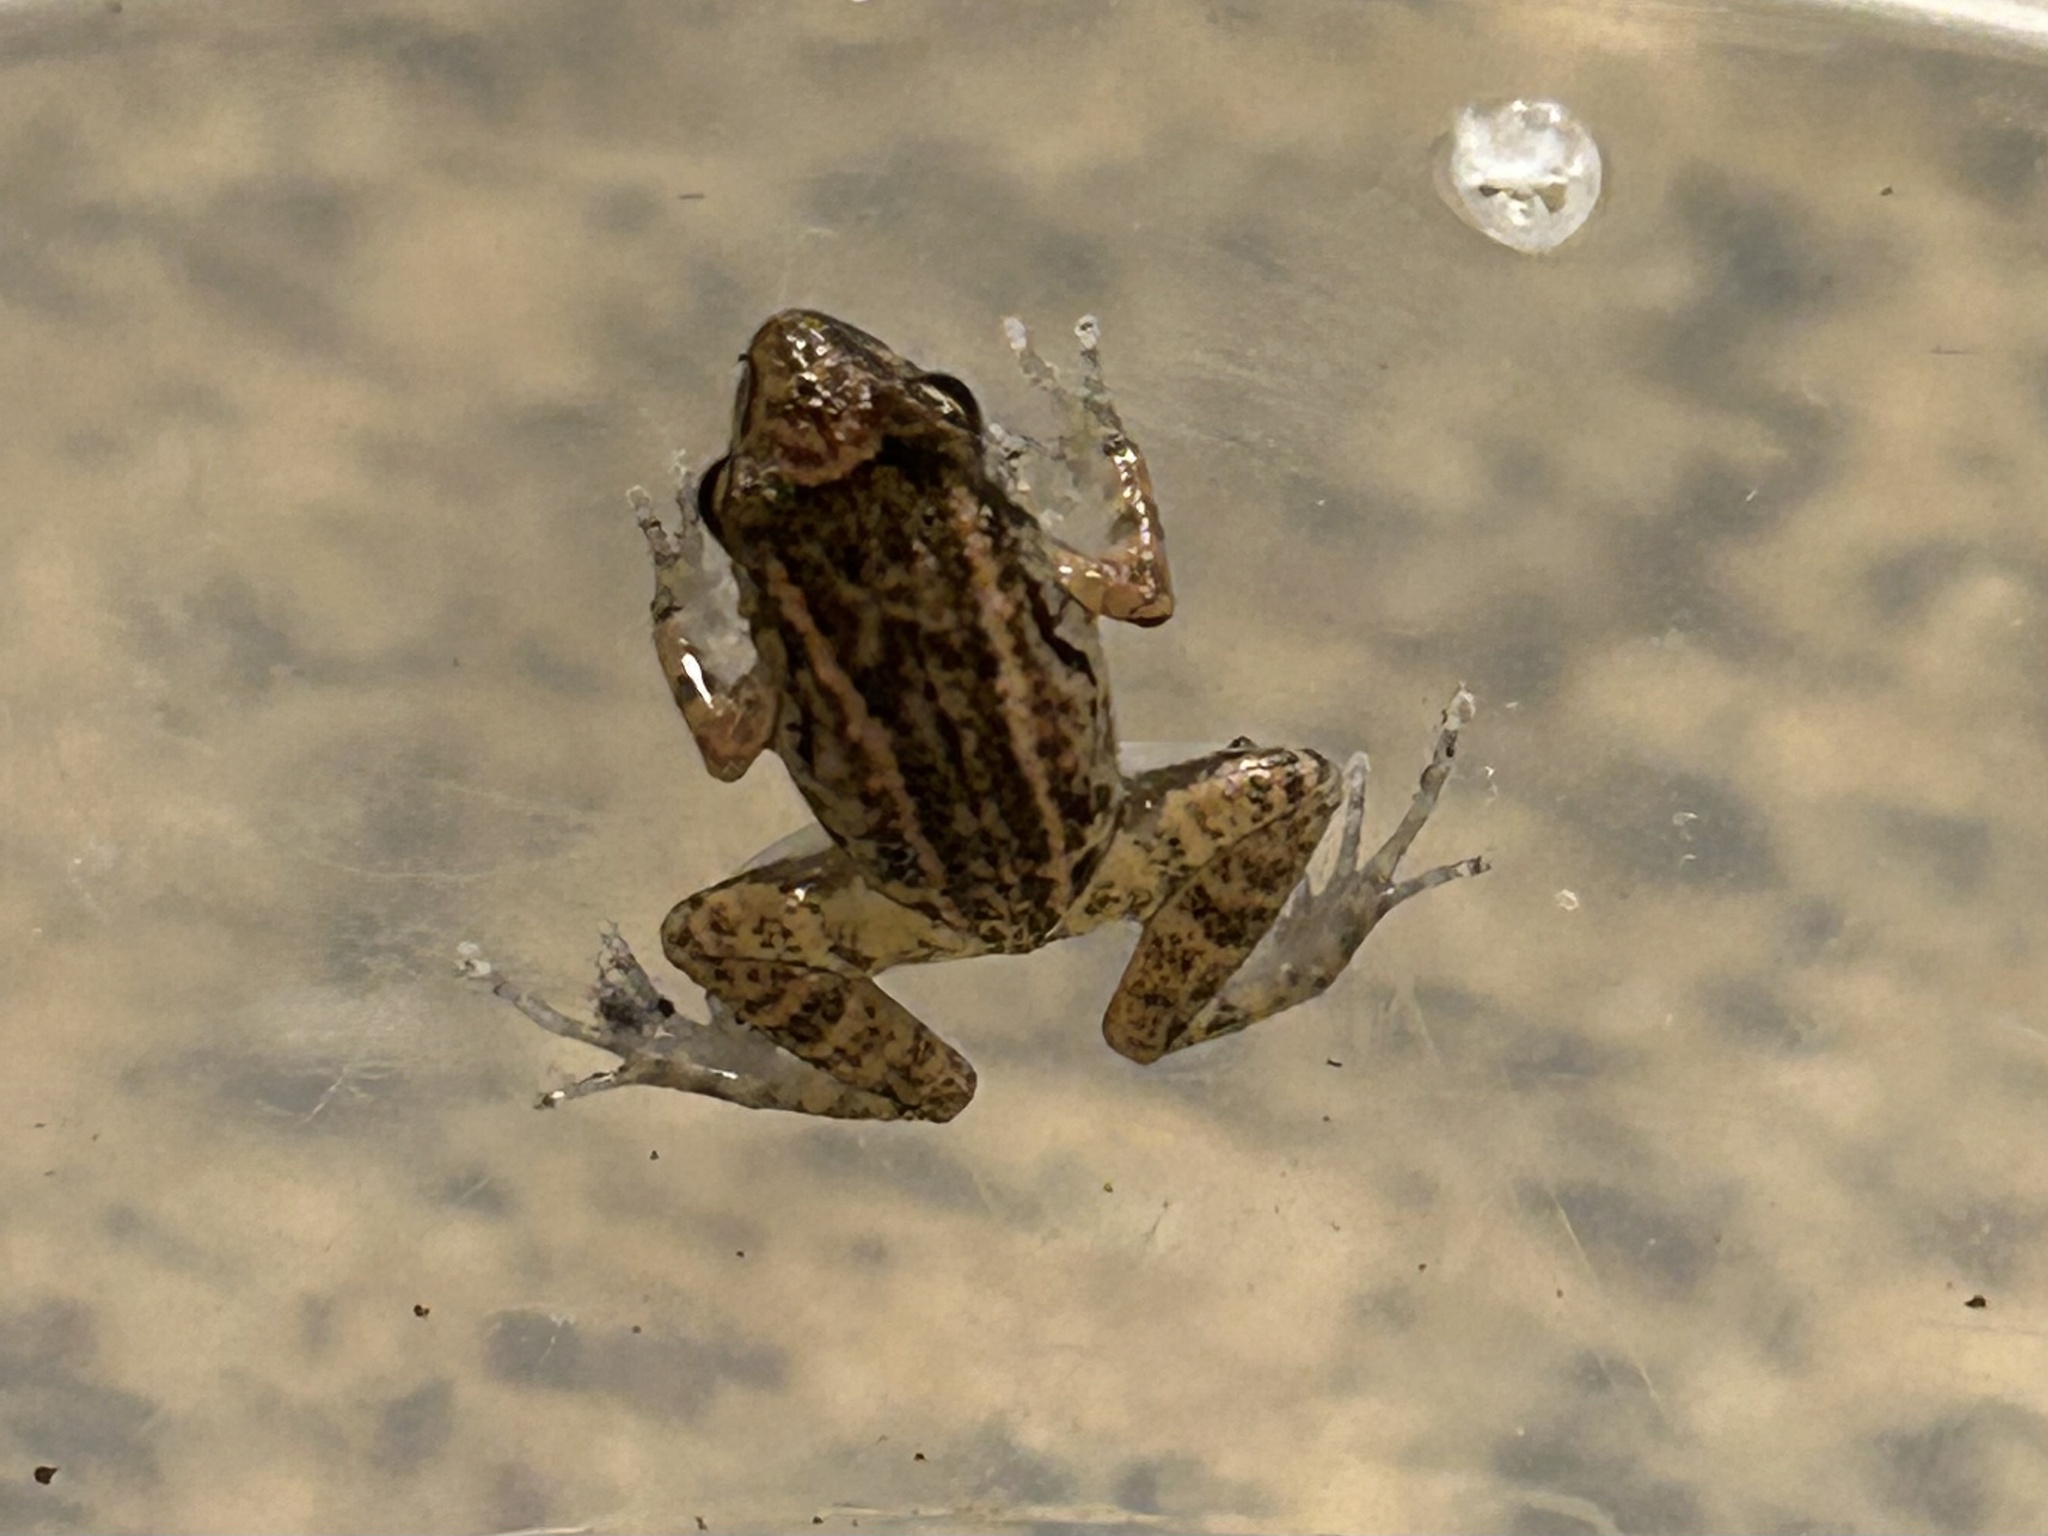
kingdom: Animalia
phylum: Chordata
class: Amphibia
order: Anura
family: Eleutherodactylidae
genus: Eleutherodactylus
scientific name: Eleutherodactylus planirostris
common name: Greenhouse frog
